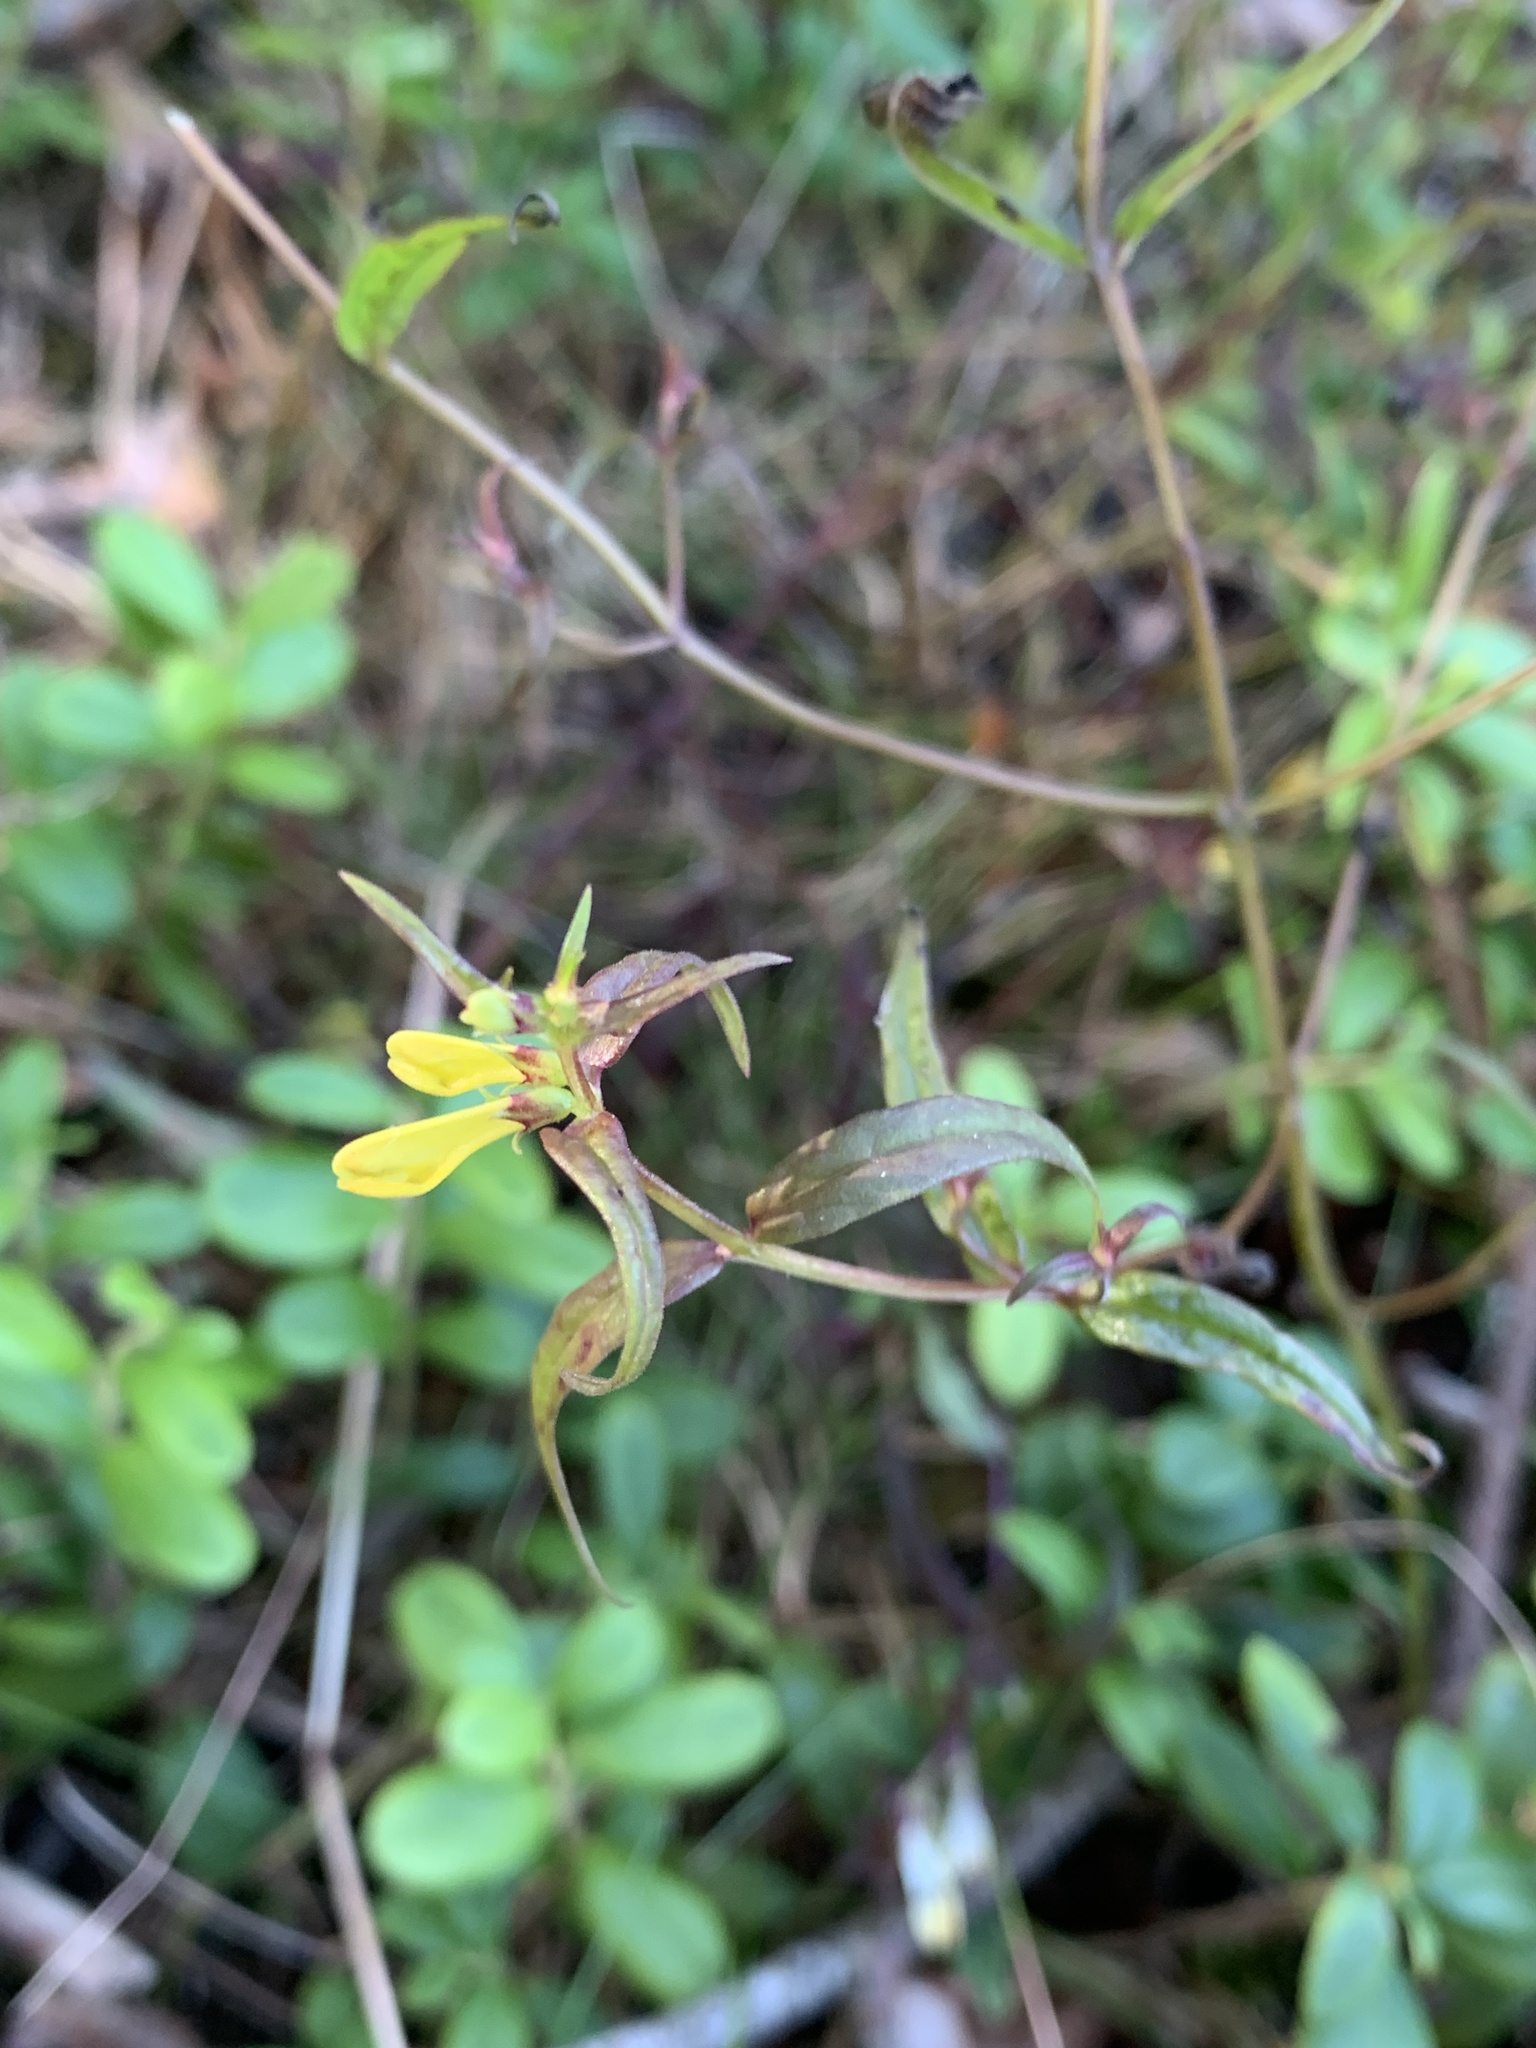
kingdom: Plantae
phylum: Tracheophyta
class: Magnoliopsida
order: Lamiales
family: Orobanchaceae
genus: Melampyrum
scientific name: Melampyrum pratense
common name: Common cow-wheat
